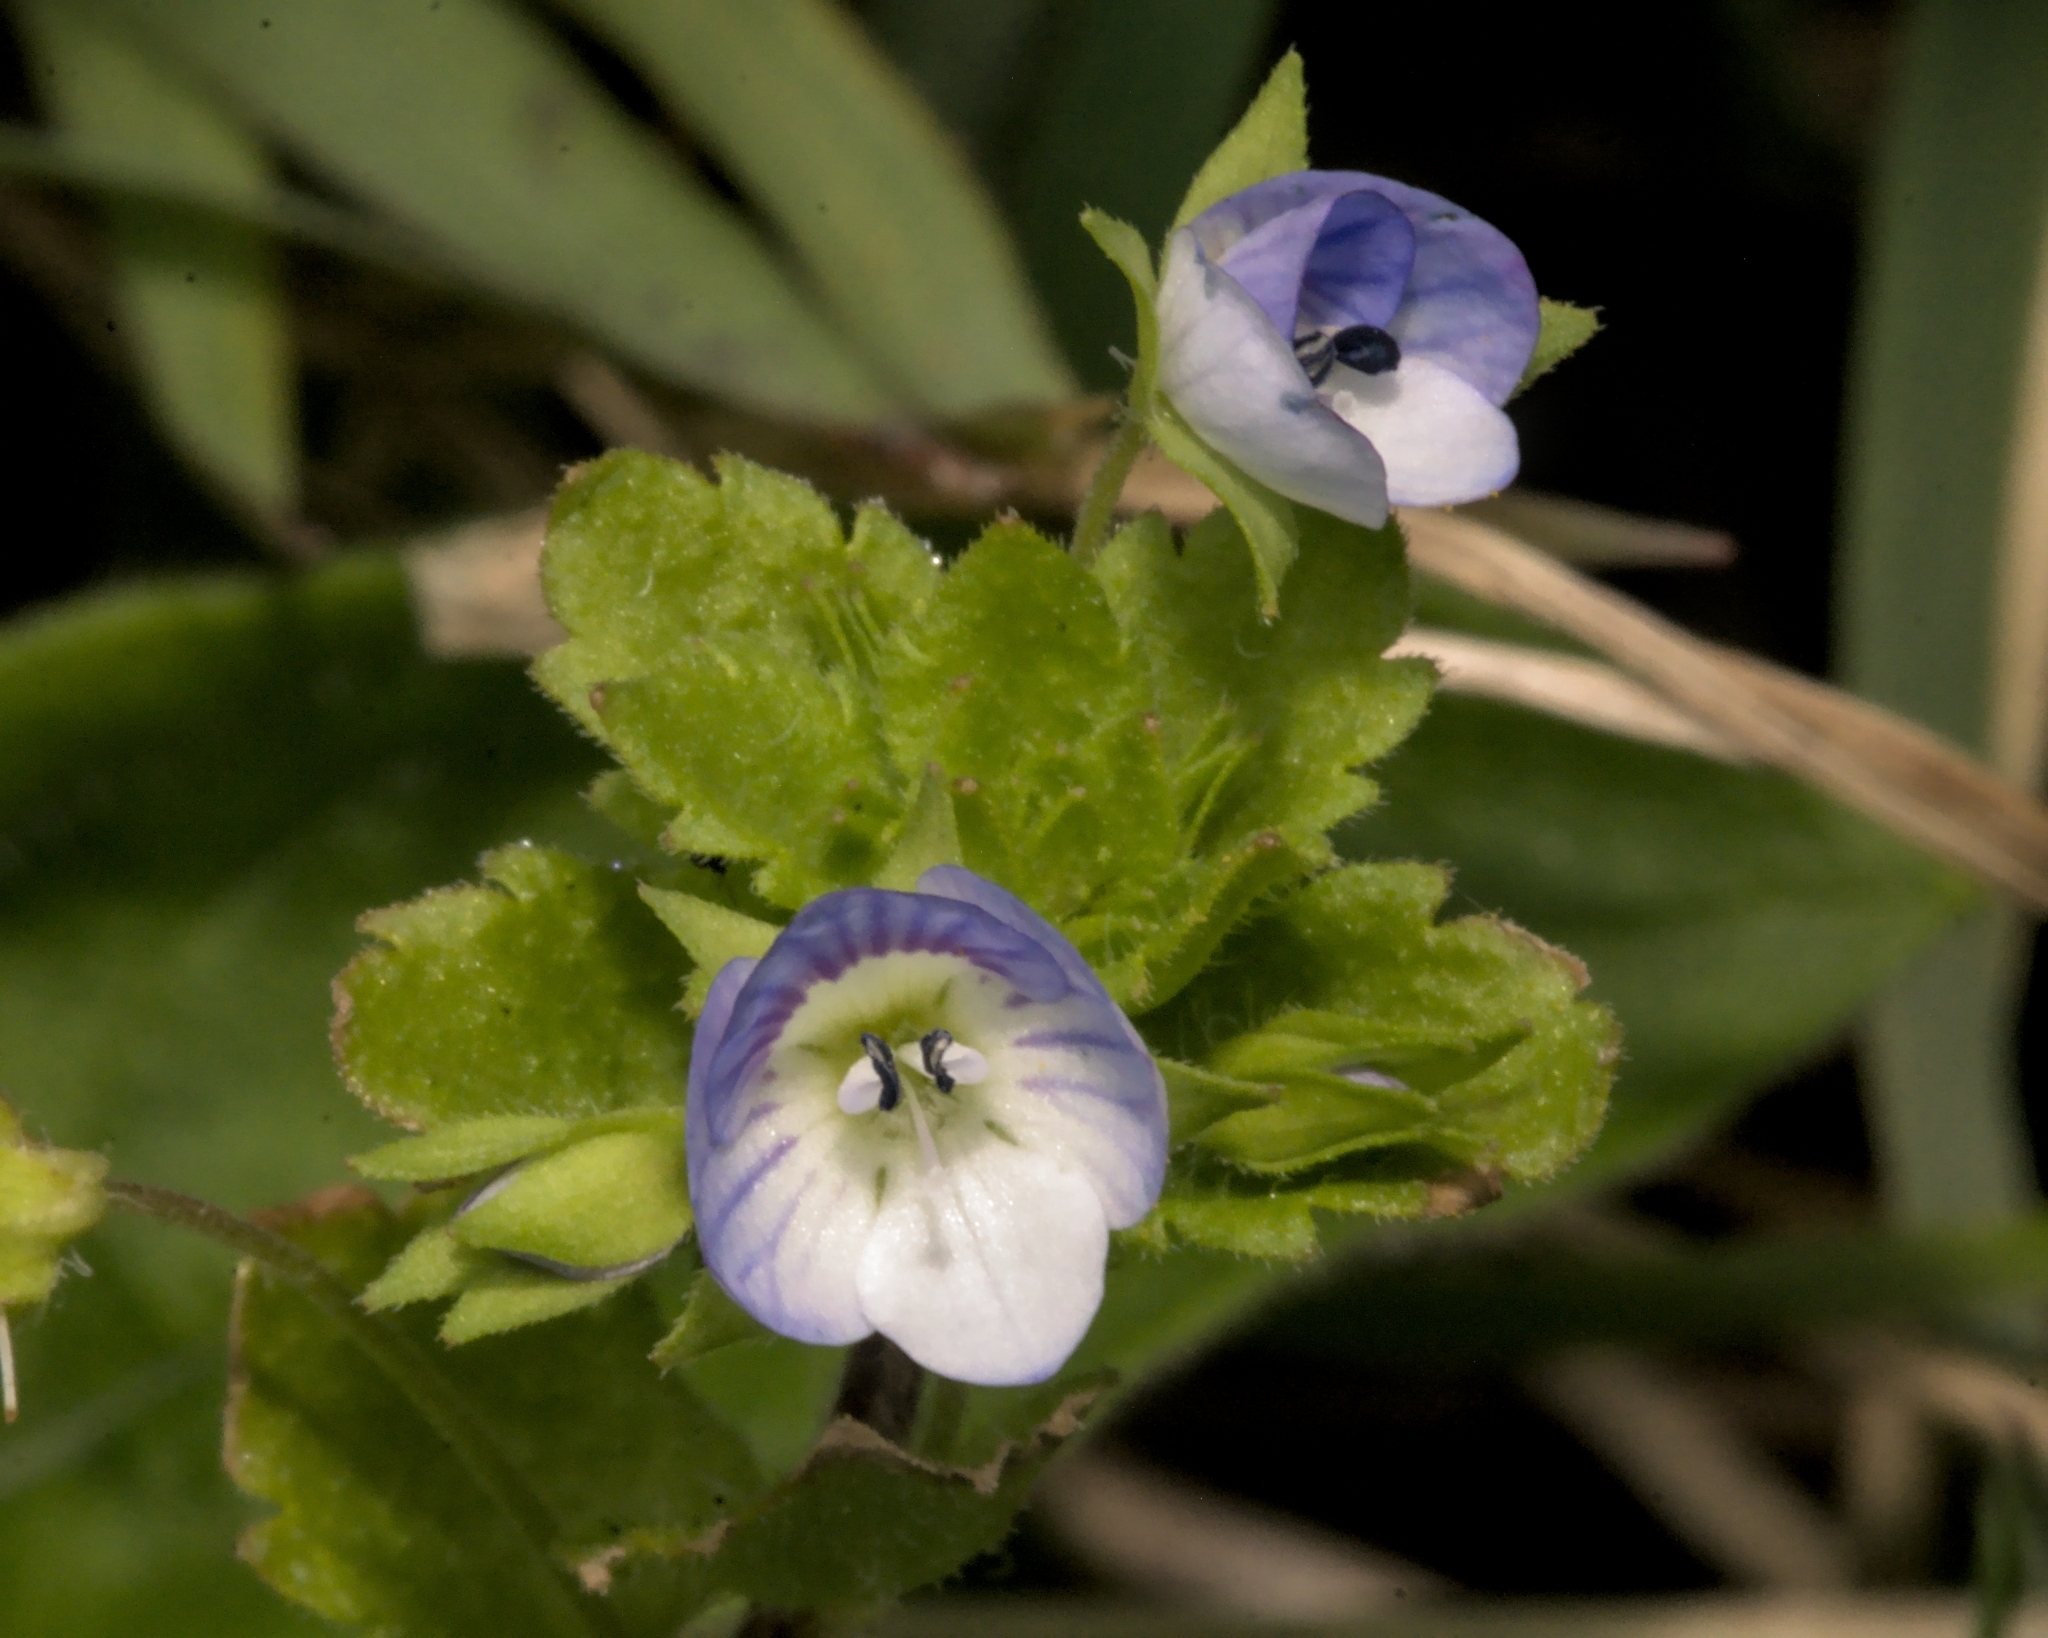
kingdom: Plantae
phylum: Tracheophyta
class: Magnoliopsida
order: Lamiales
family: Plantaginaceae
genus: Veronica
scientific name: Veronica persica
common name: Common field-speedwell
